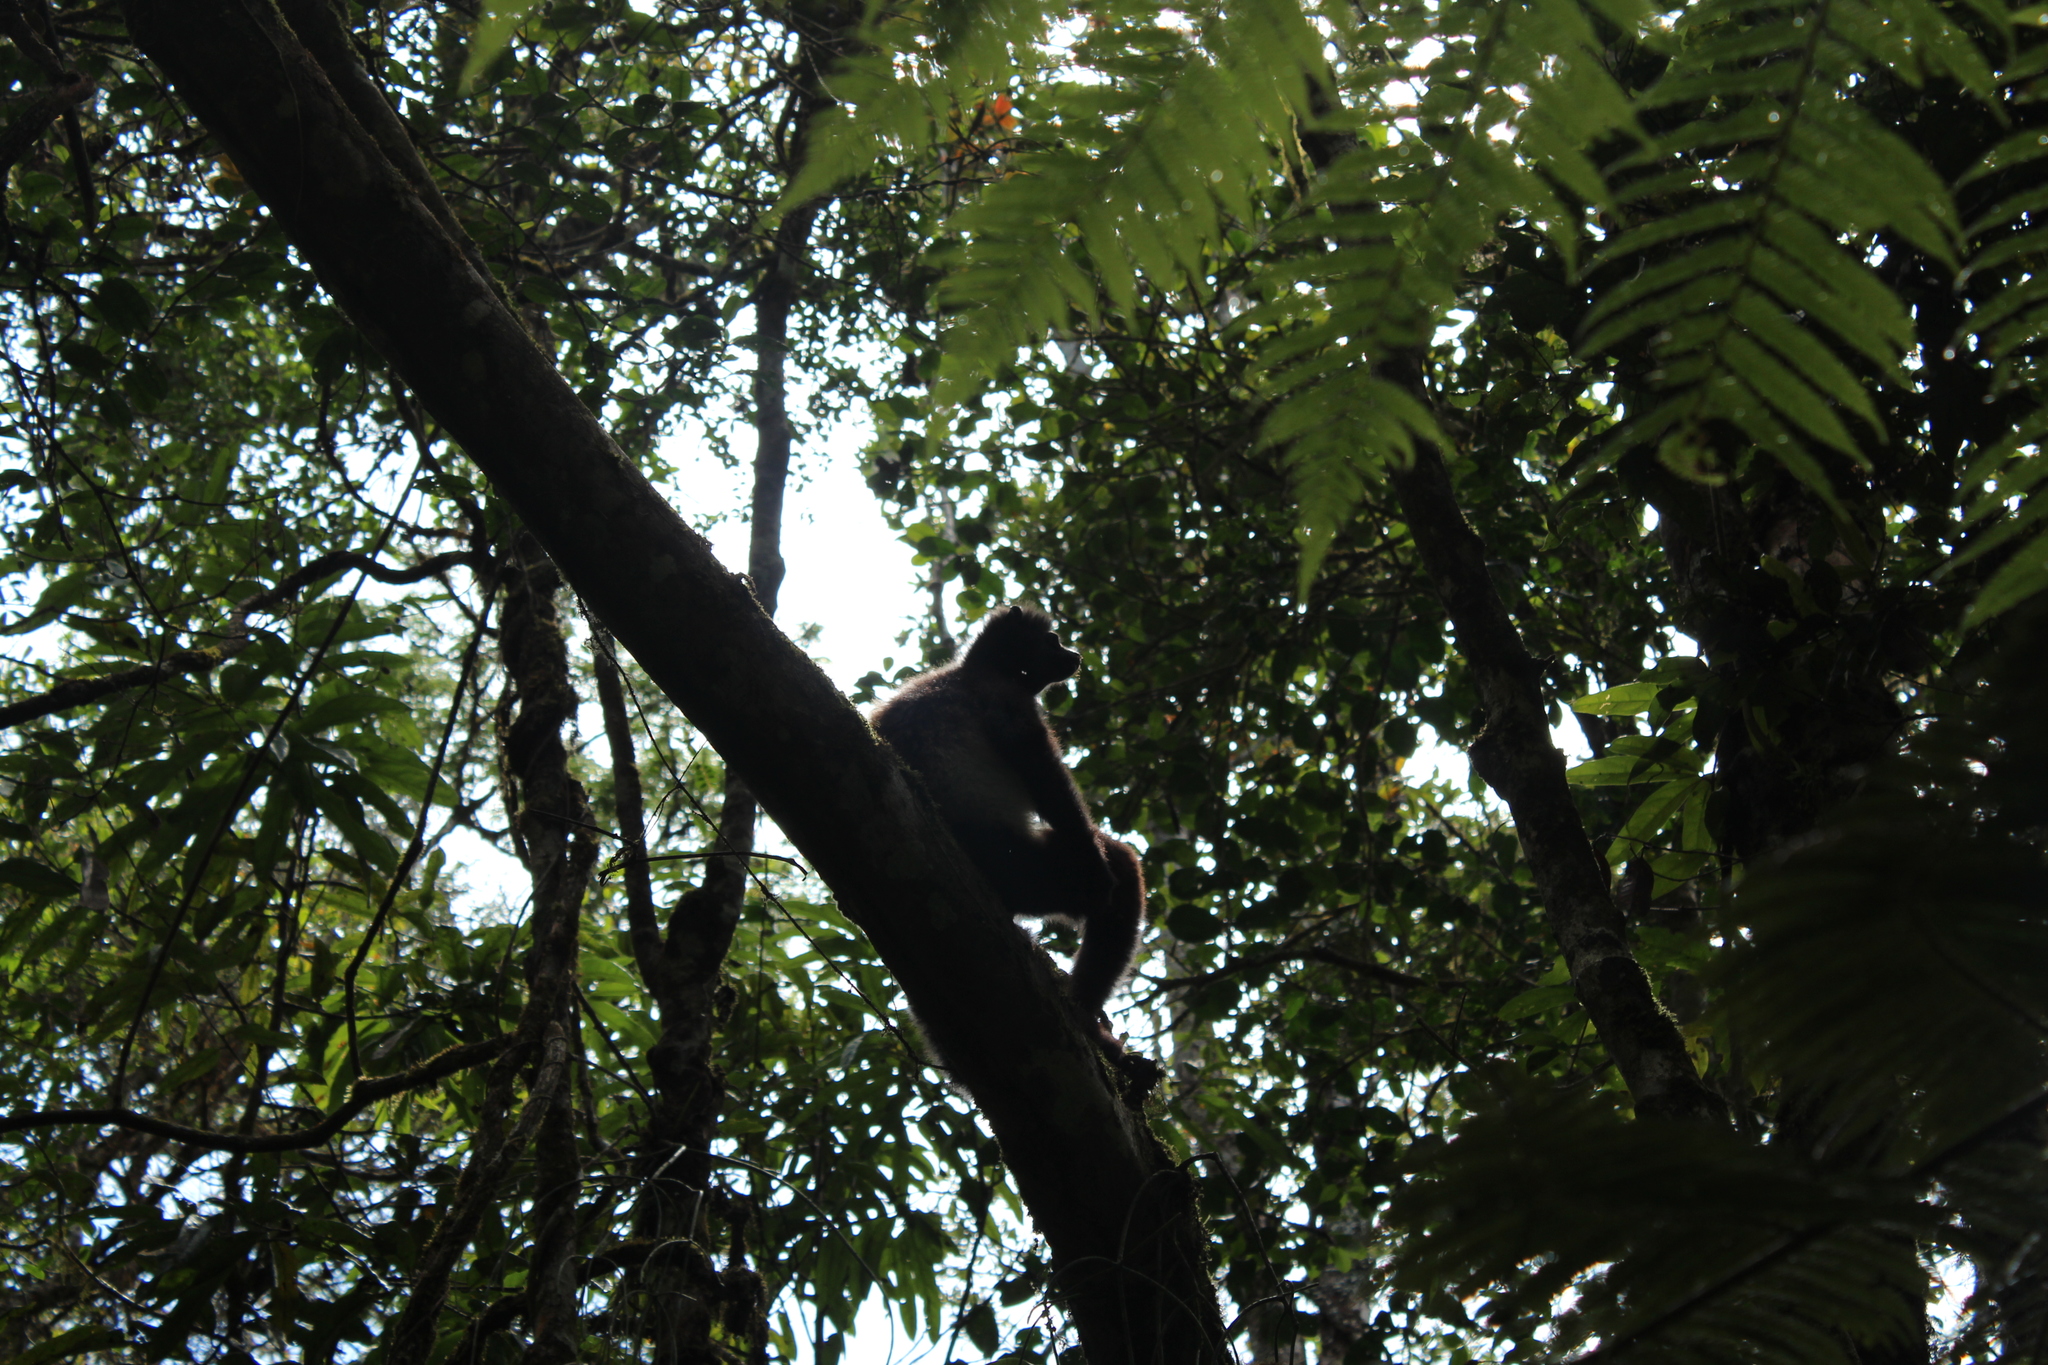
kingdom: Animalia
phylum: Chordata
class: Mammalia
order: Primates
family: Indriidae
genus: Propithecus
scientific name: Propithecus edwardsi
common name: Milne-edwards’s simpona
